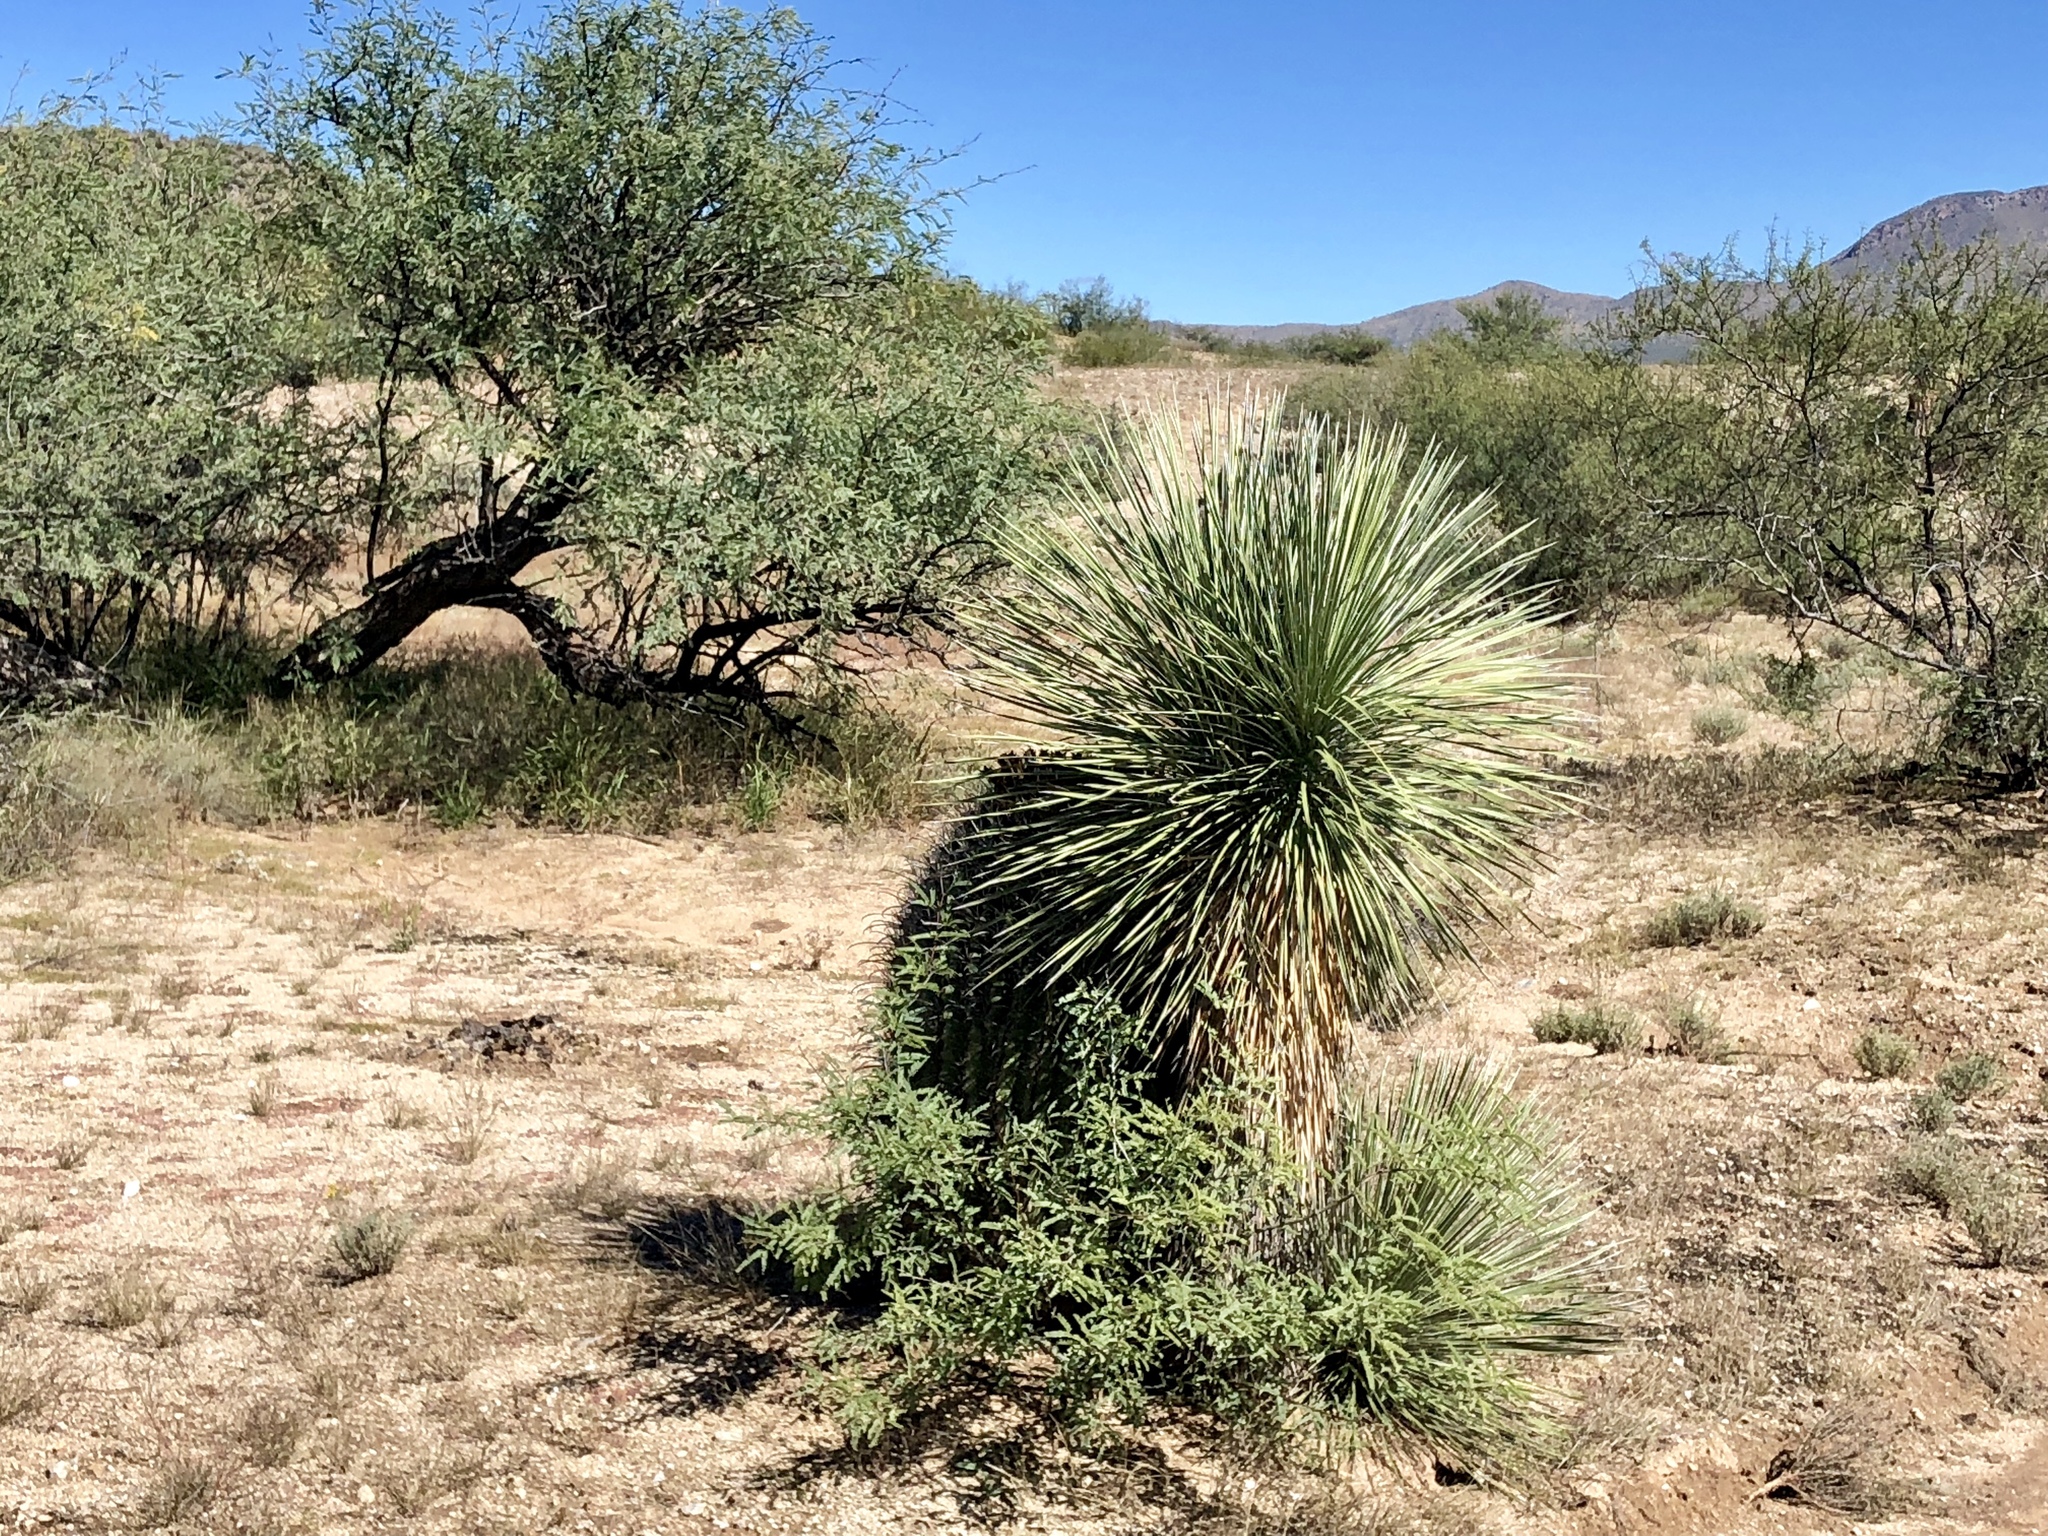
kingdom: Plantae
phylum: Tracheophyta
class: Liliopsida
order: Asparagales
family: Asparagaceae
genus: Yucca
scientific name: Yucca elata
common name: Palmella
